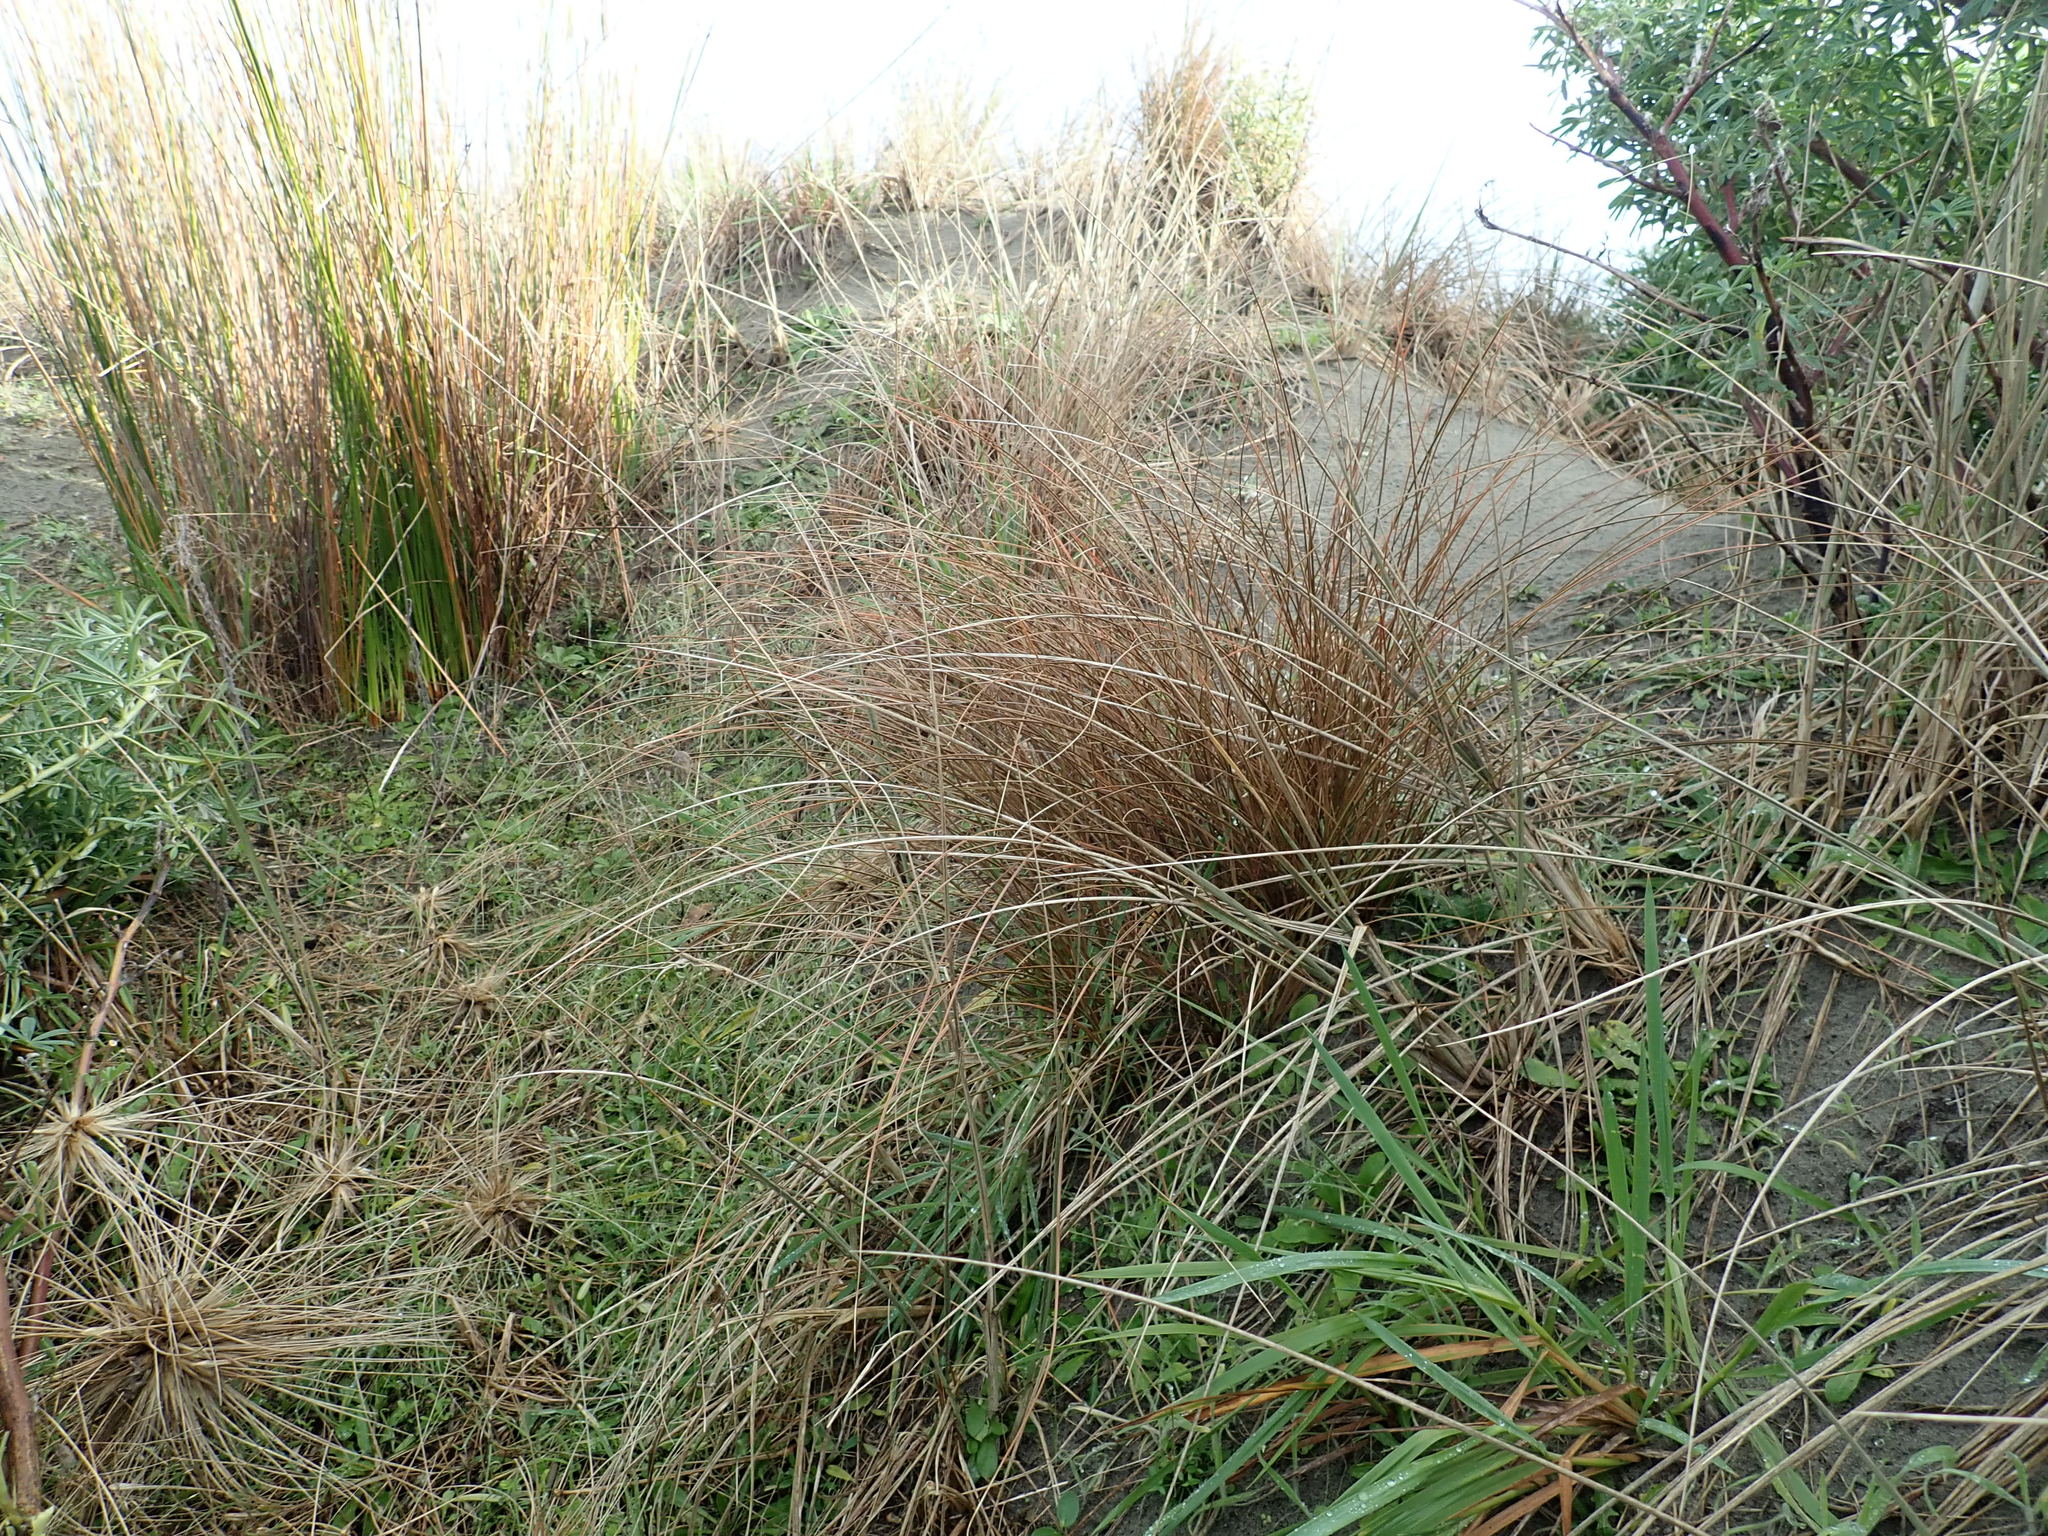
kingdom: Plantae
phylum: Tracheophyta
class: Liliopsida
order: Poales
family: Cyperaceae
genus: Carex
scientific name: Carex testacea
